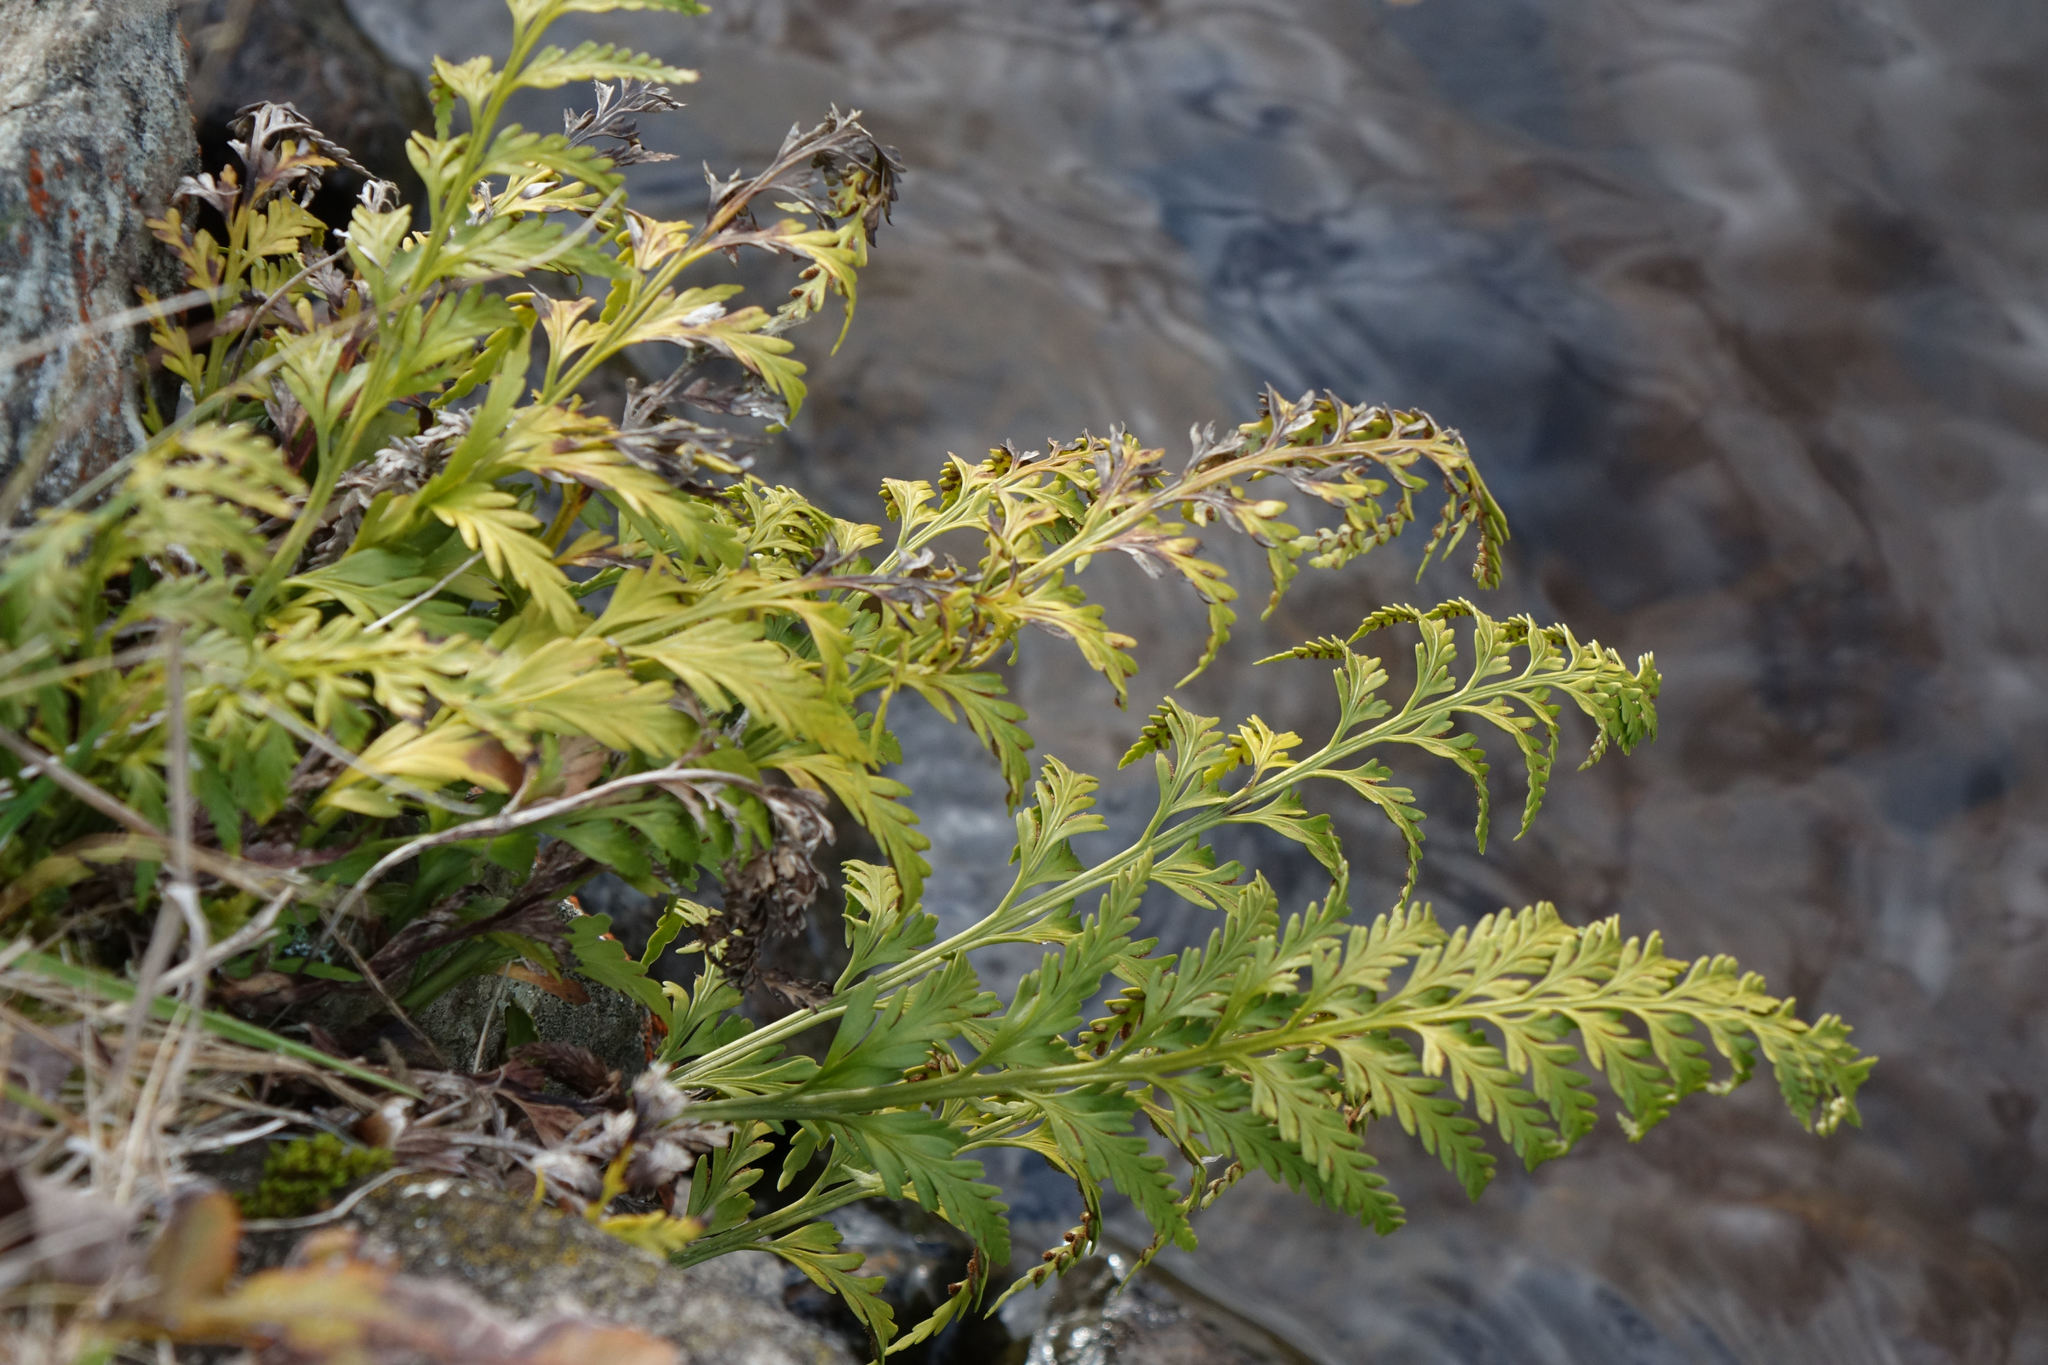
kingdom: Plantae
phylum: Tracheophyta
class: Polypodiopsida
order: Polypodiales
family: Aspleniaceae
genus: Asplenium
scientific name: Asplenium appendiculatum
